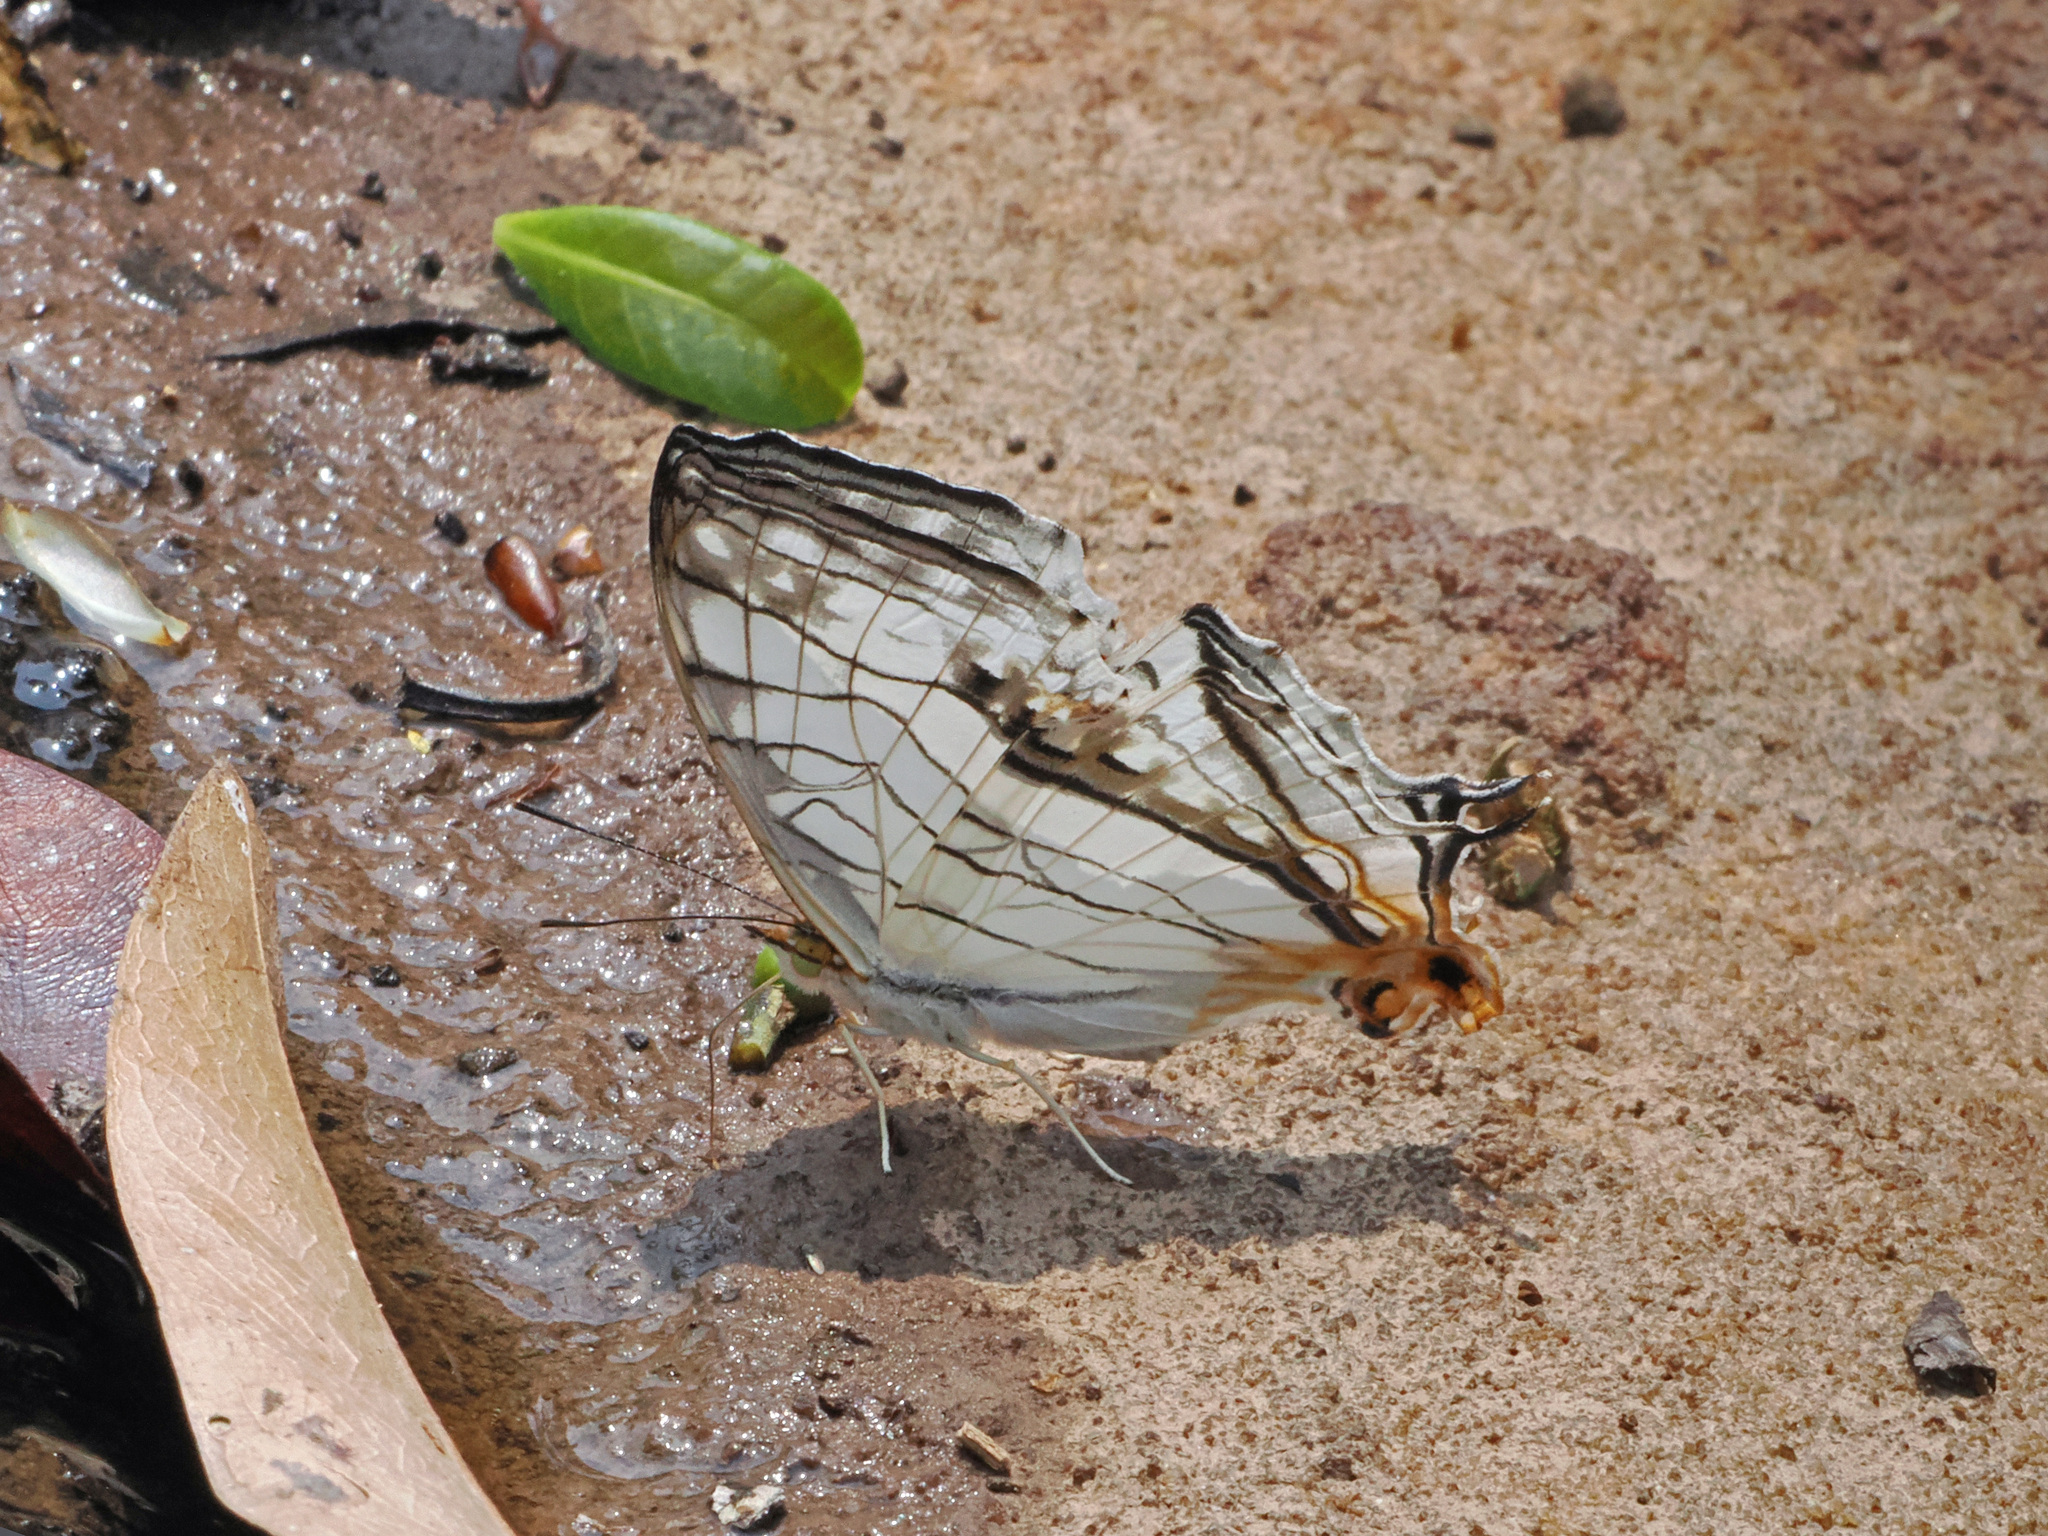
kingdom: Animalia
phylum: Arthropoda
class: Insecta
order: Lepidoptera
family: Nymphalidae
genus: Cyrestis
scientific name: Cyrestis thyodamas
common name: Common mapwing
